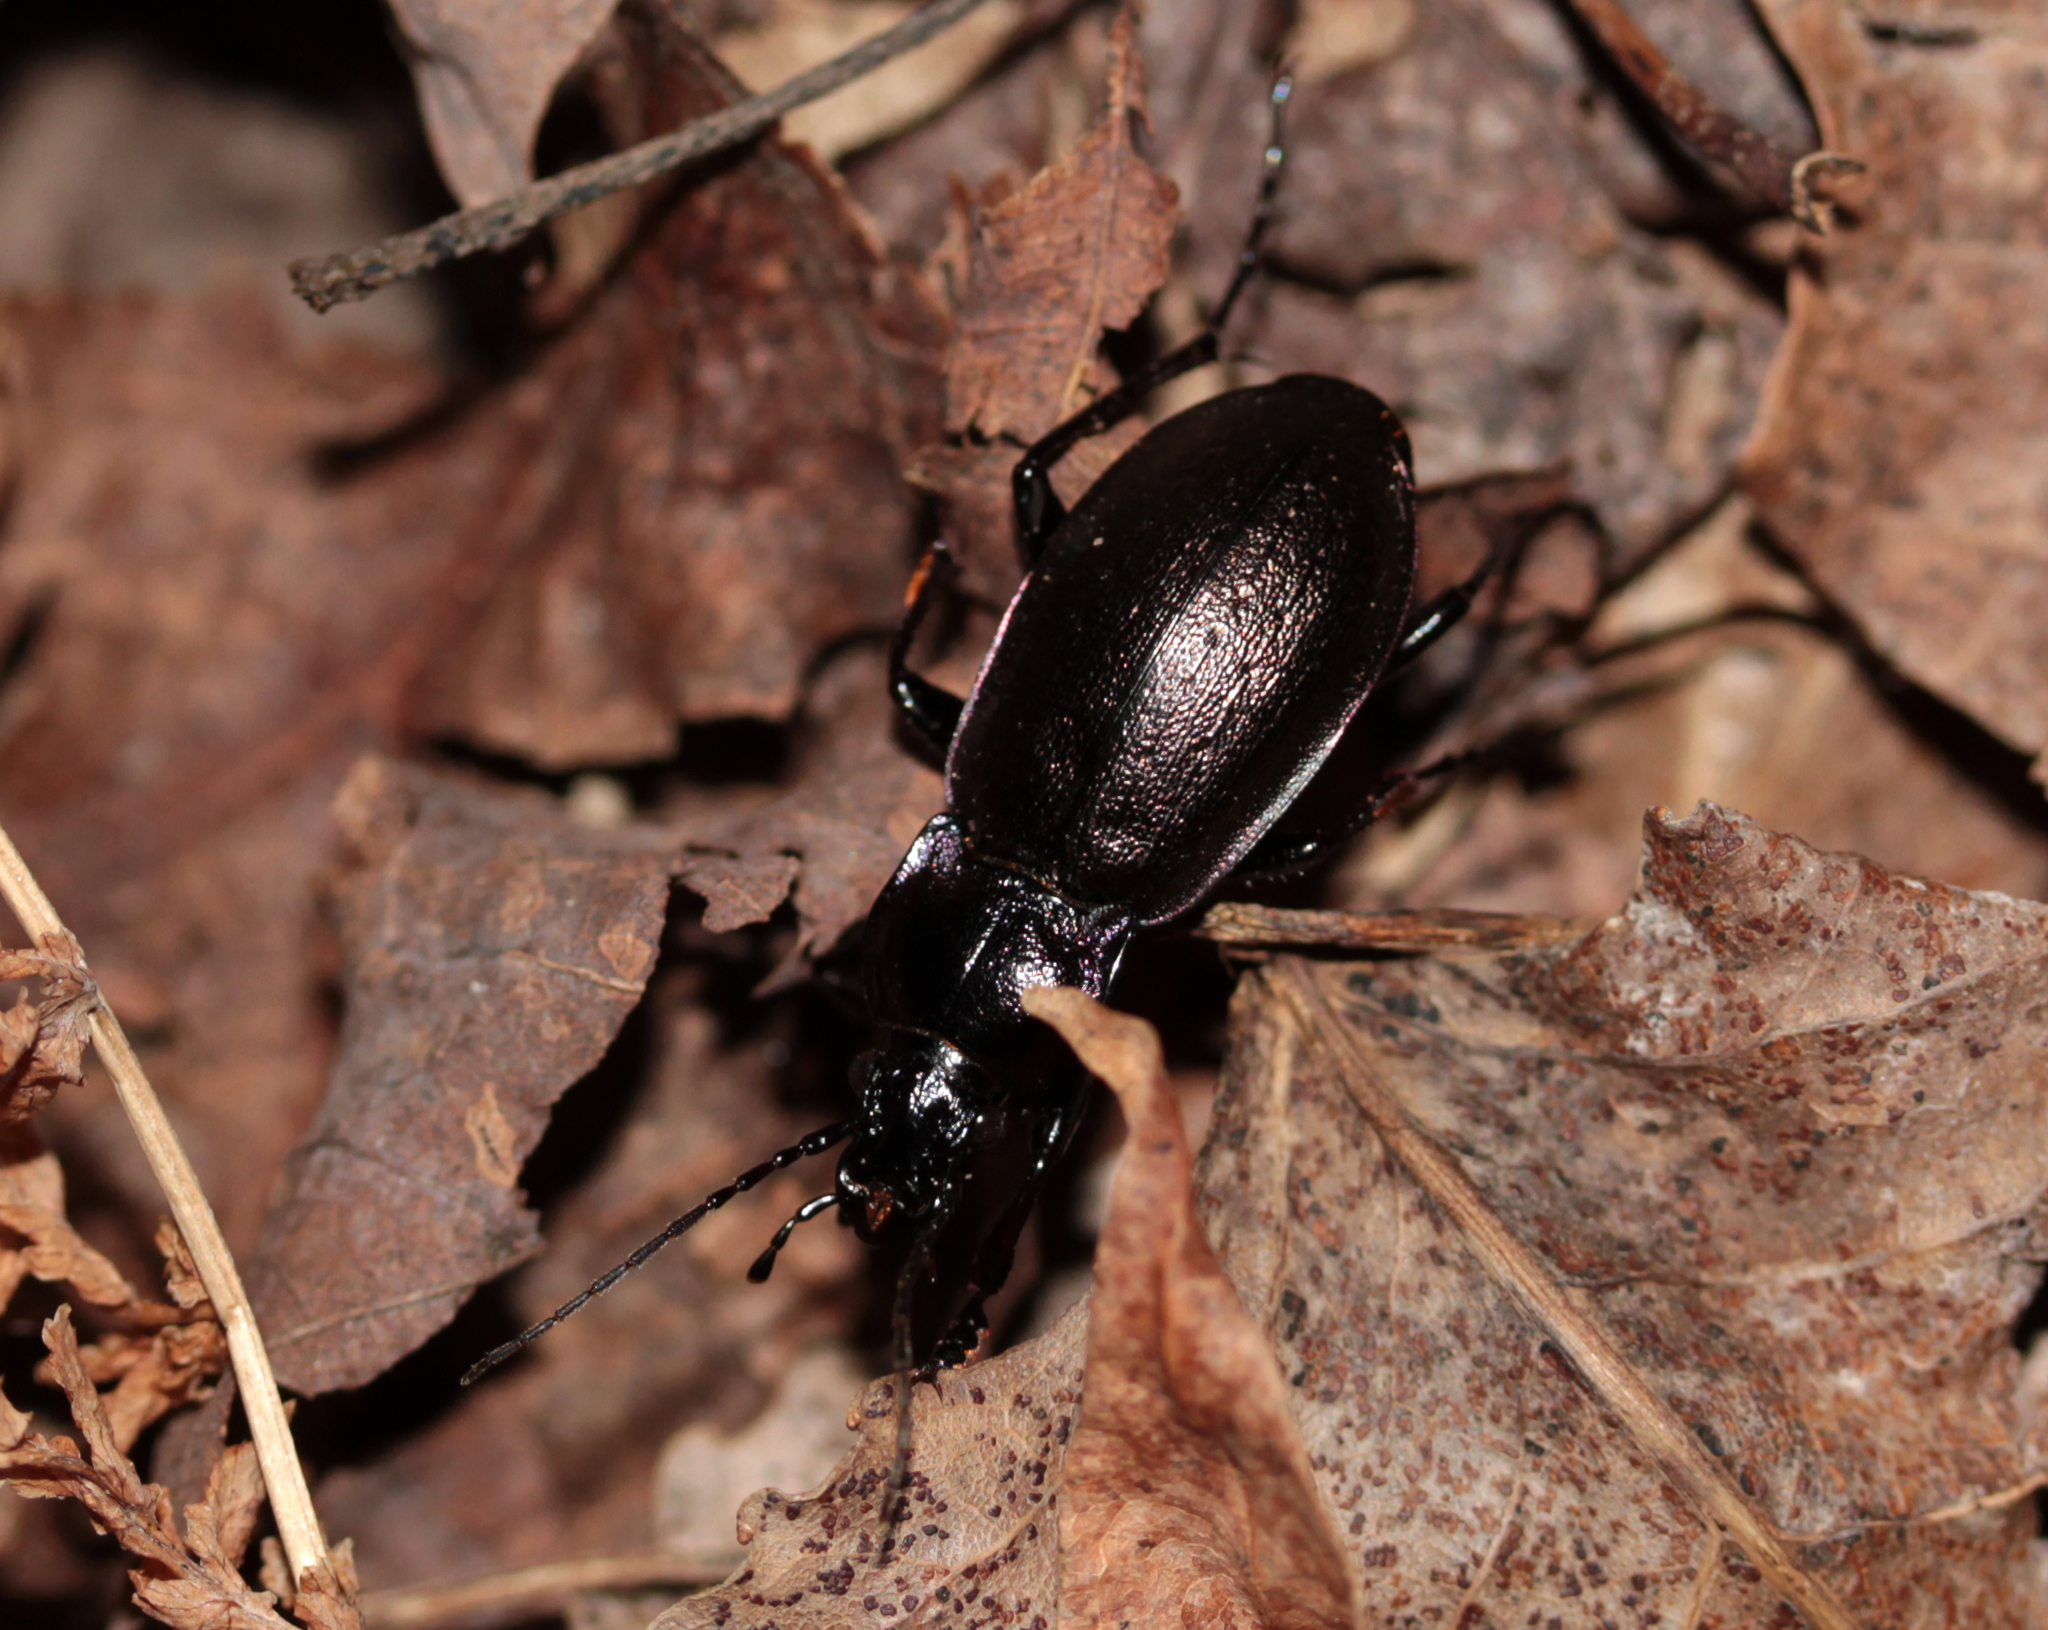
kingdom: Animalia
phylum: Arthropoda
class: Insecta
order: Coleoptera
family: Carabidae
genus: Carabus
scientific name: Carabus nemoralis
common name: European ground beetle
